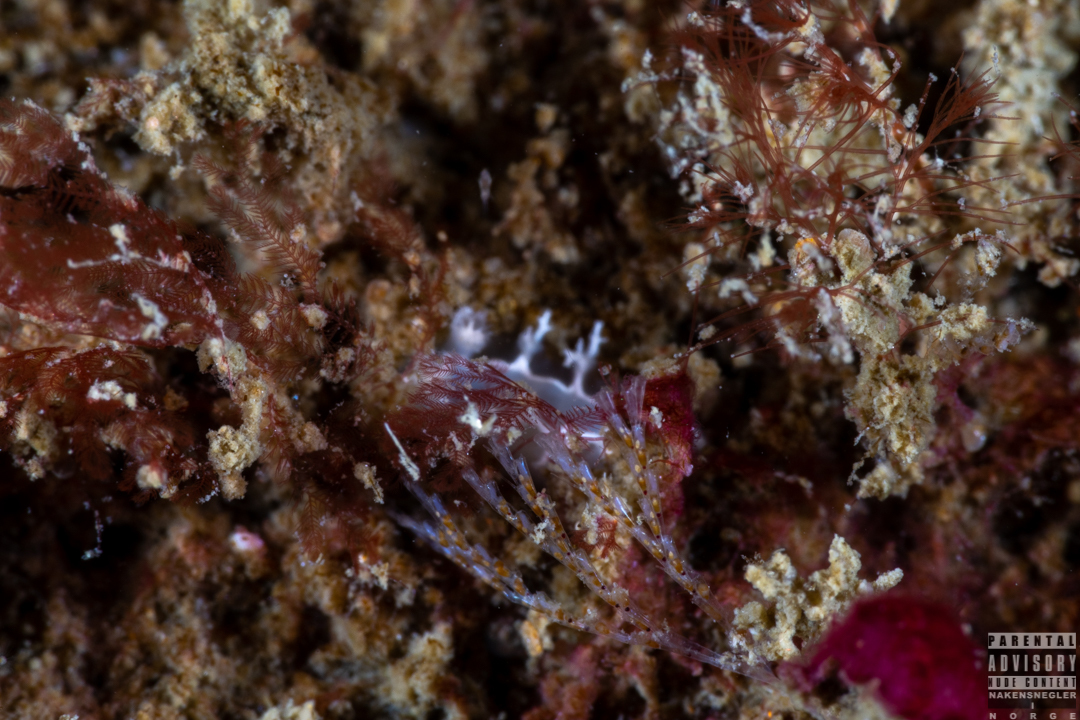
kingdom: Animalia
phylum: Mollusca
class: Gastropoda
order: Nudibranchia
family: Tritoniidae
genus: Duvaucelia
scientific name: Duvaucelia lineata
